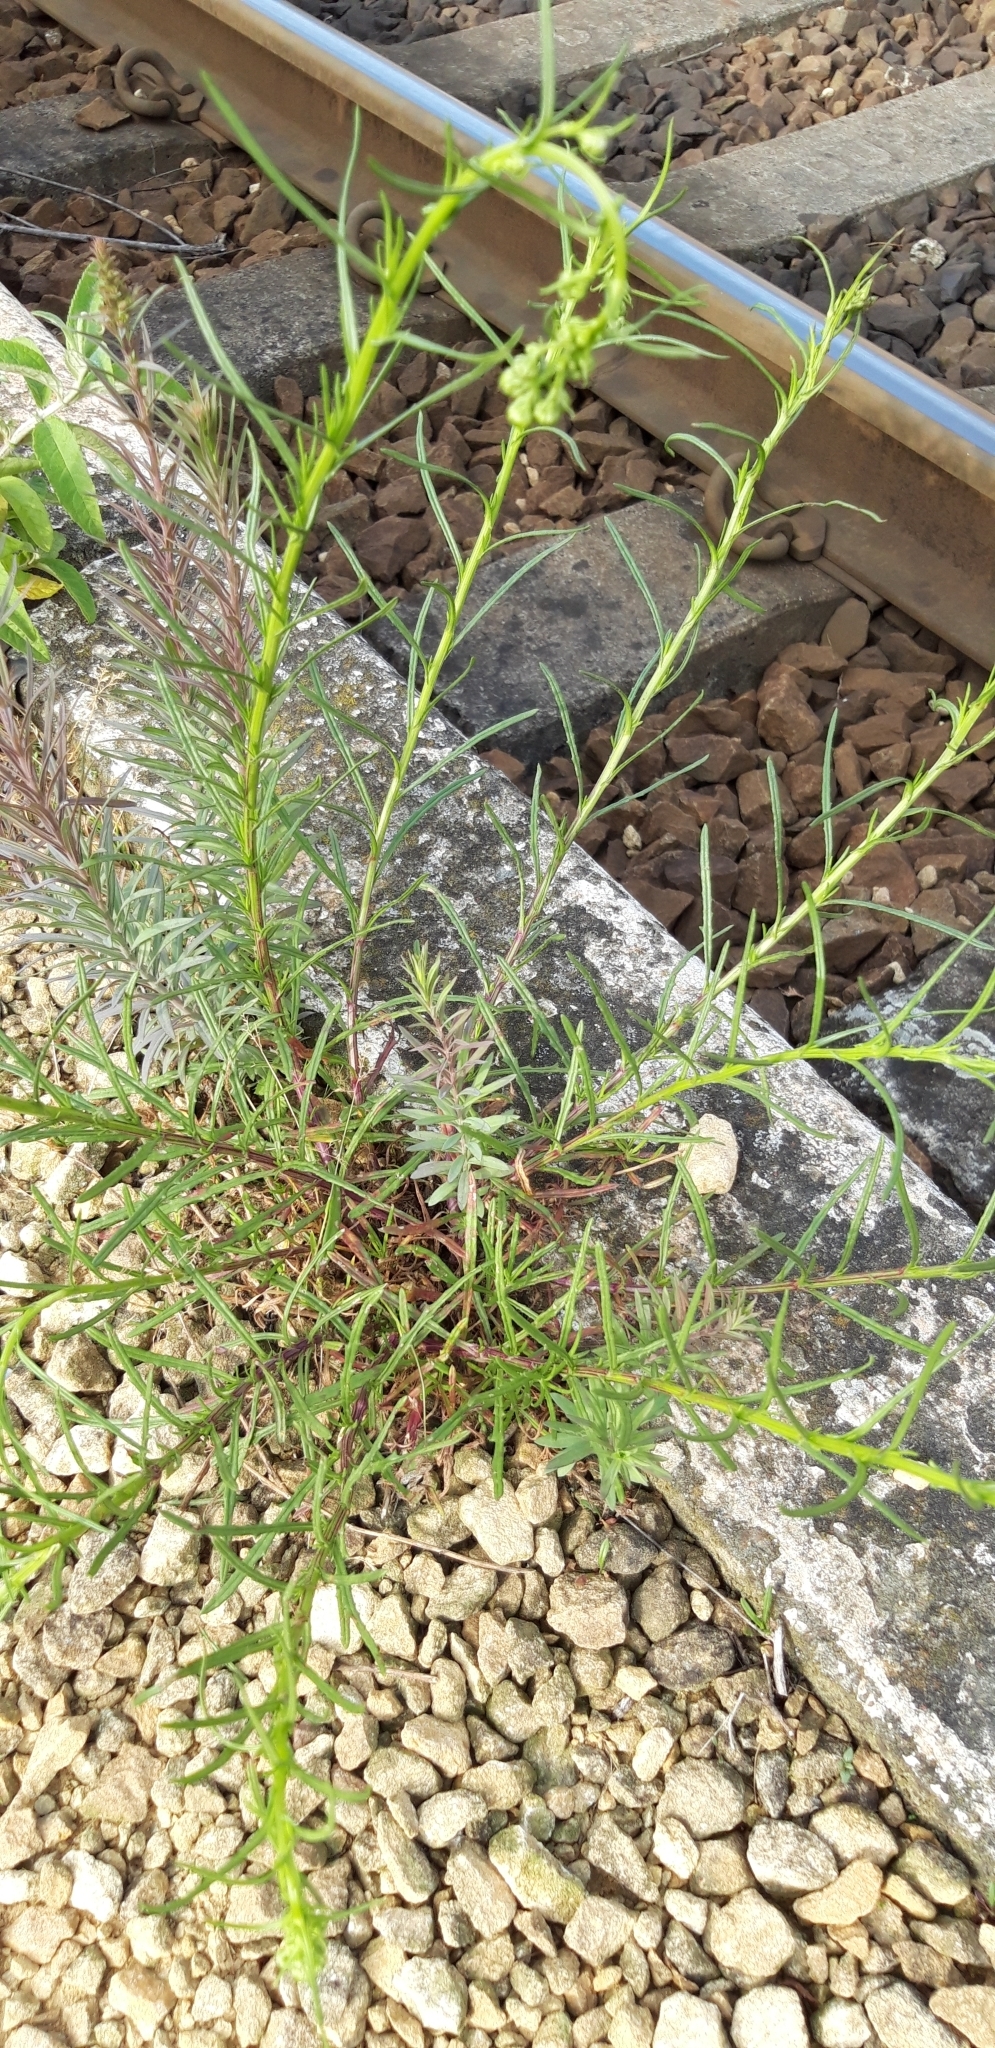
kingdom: Plantae
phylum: Tracheophyta
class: Magnoliopsida
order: Asterales
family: Asteraceae
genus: Senecio
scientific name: Senecio inaequidens
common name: Narrow-leaved ragwort
